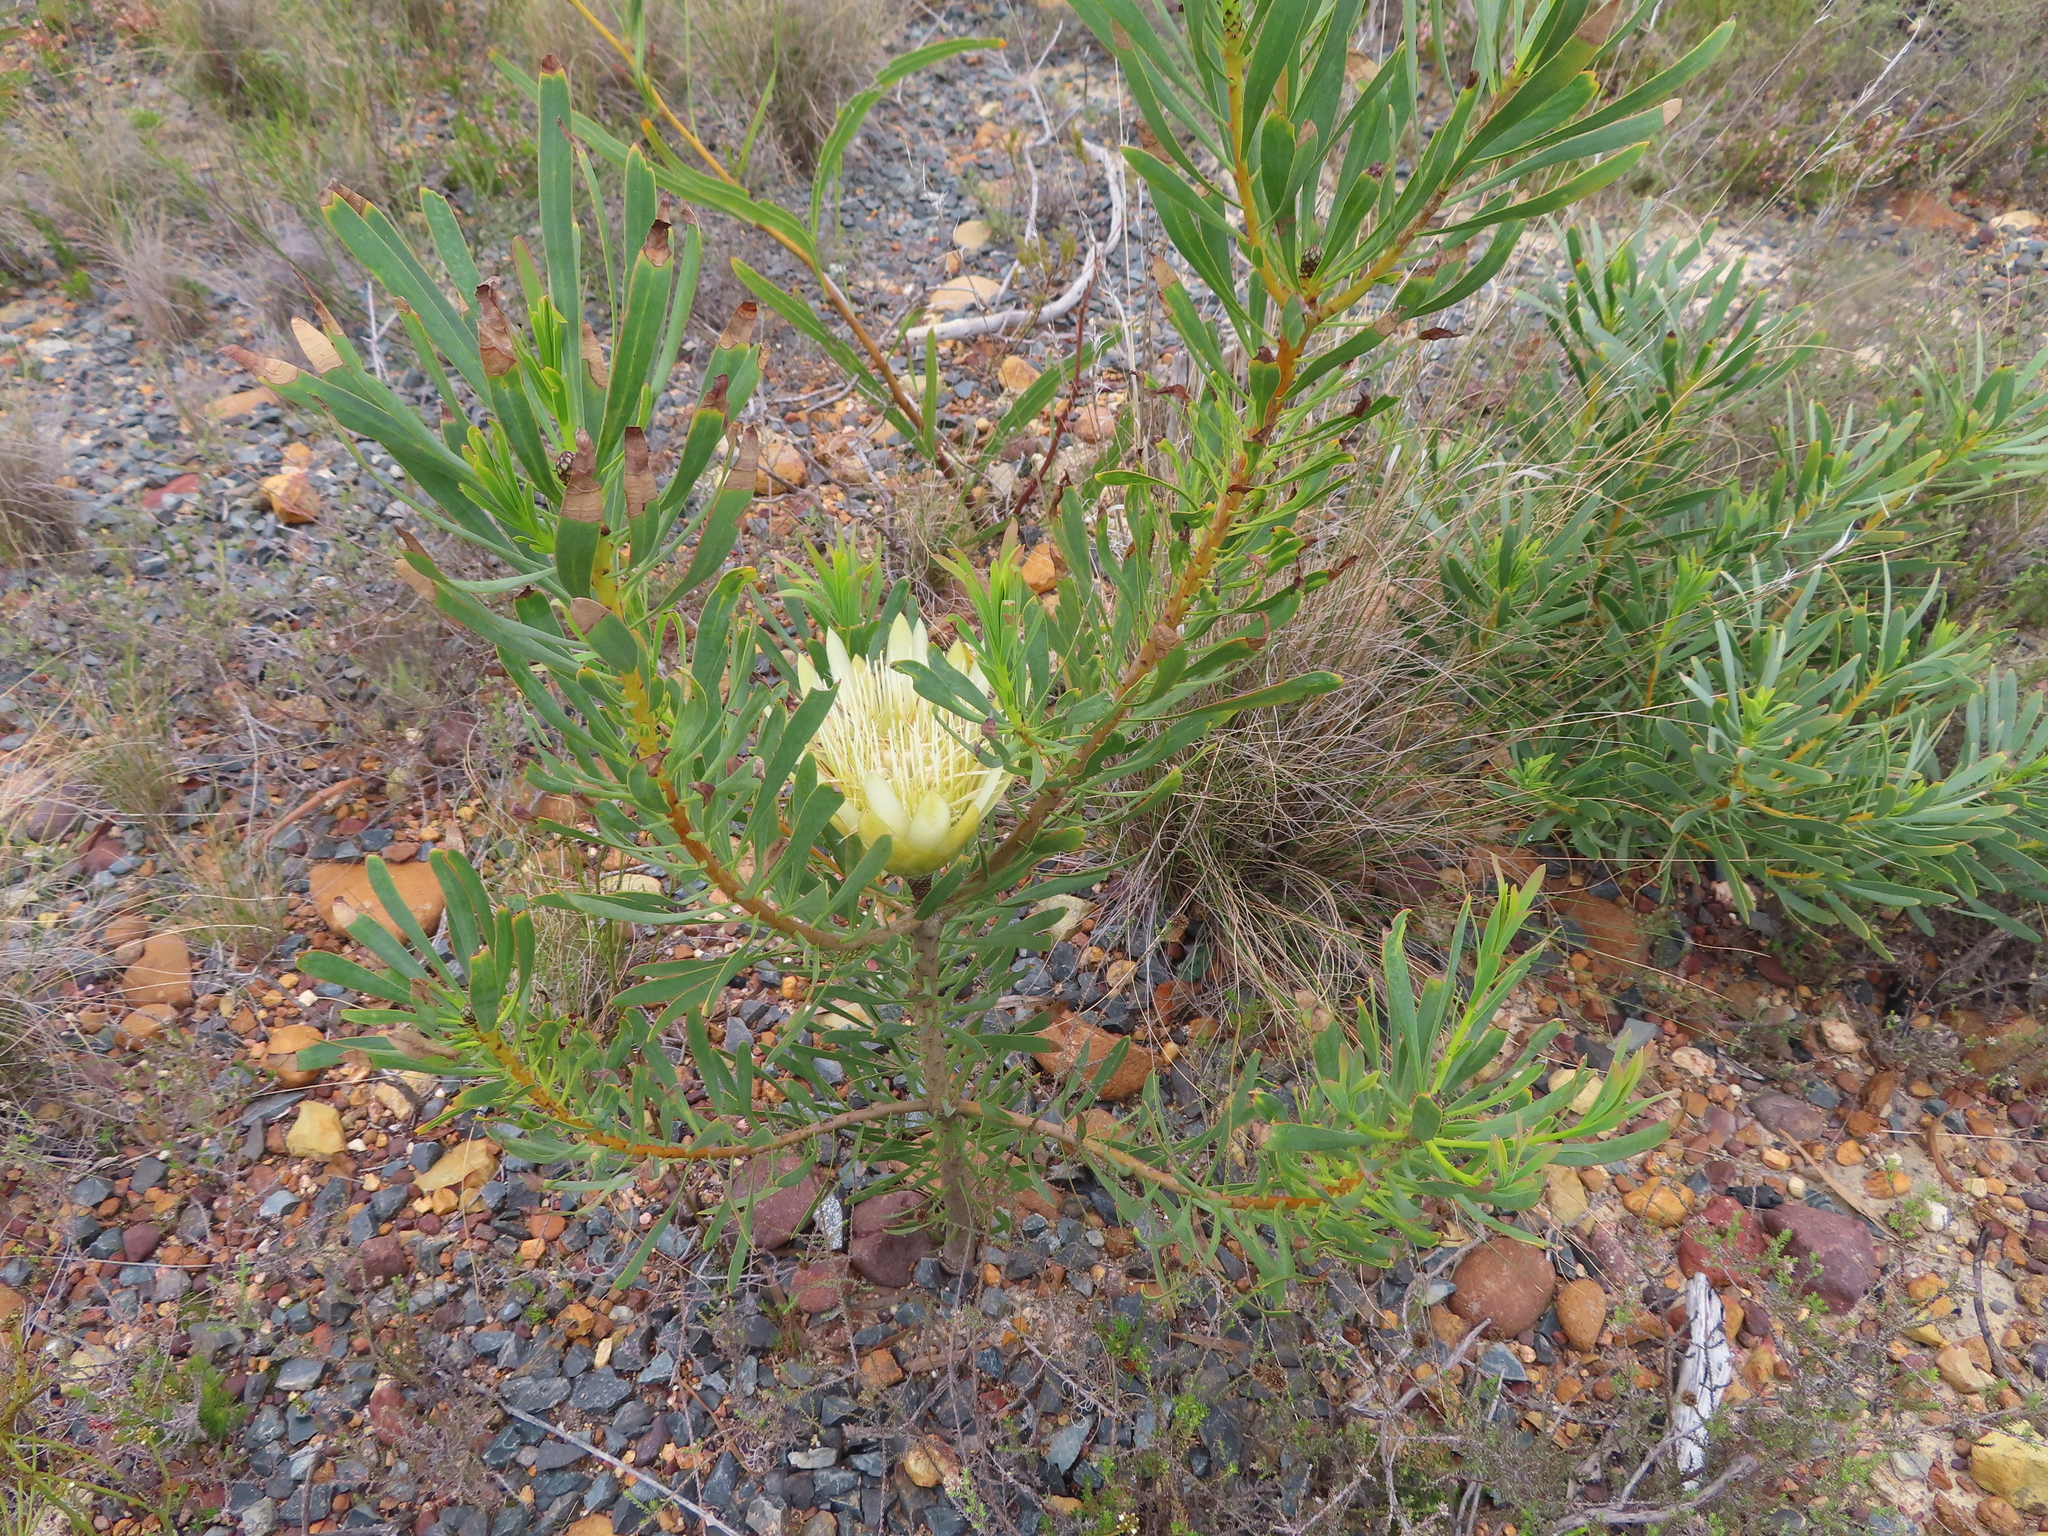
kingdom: Plantae
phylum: Tracheophyta
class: Magnoliopsida
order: Proteales
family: Proteaceae
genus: Protea
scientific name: Protea repens
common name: Sugarbush
